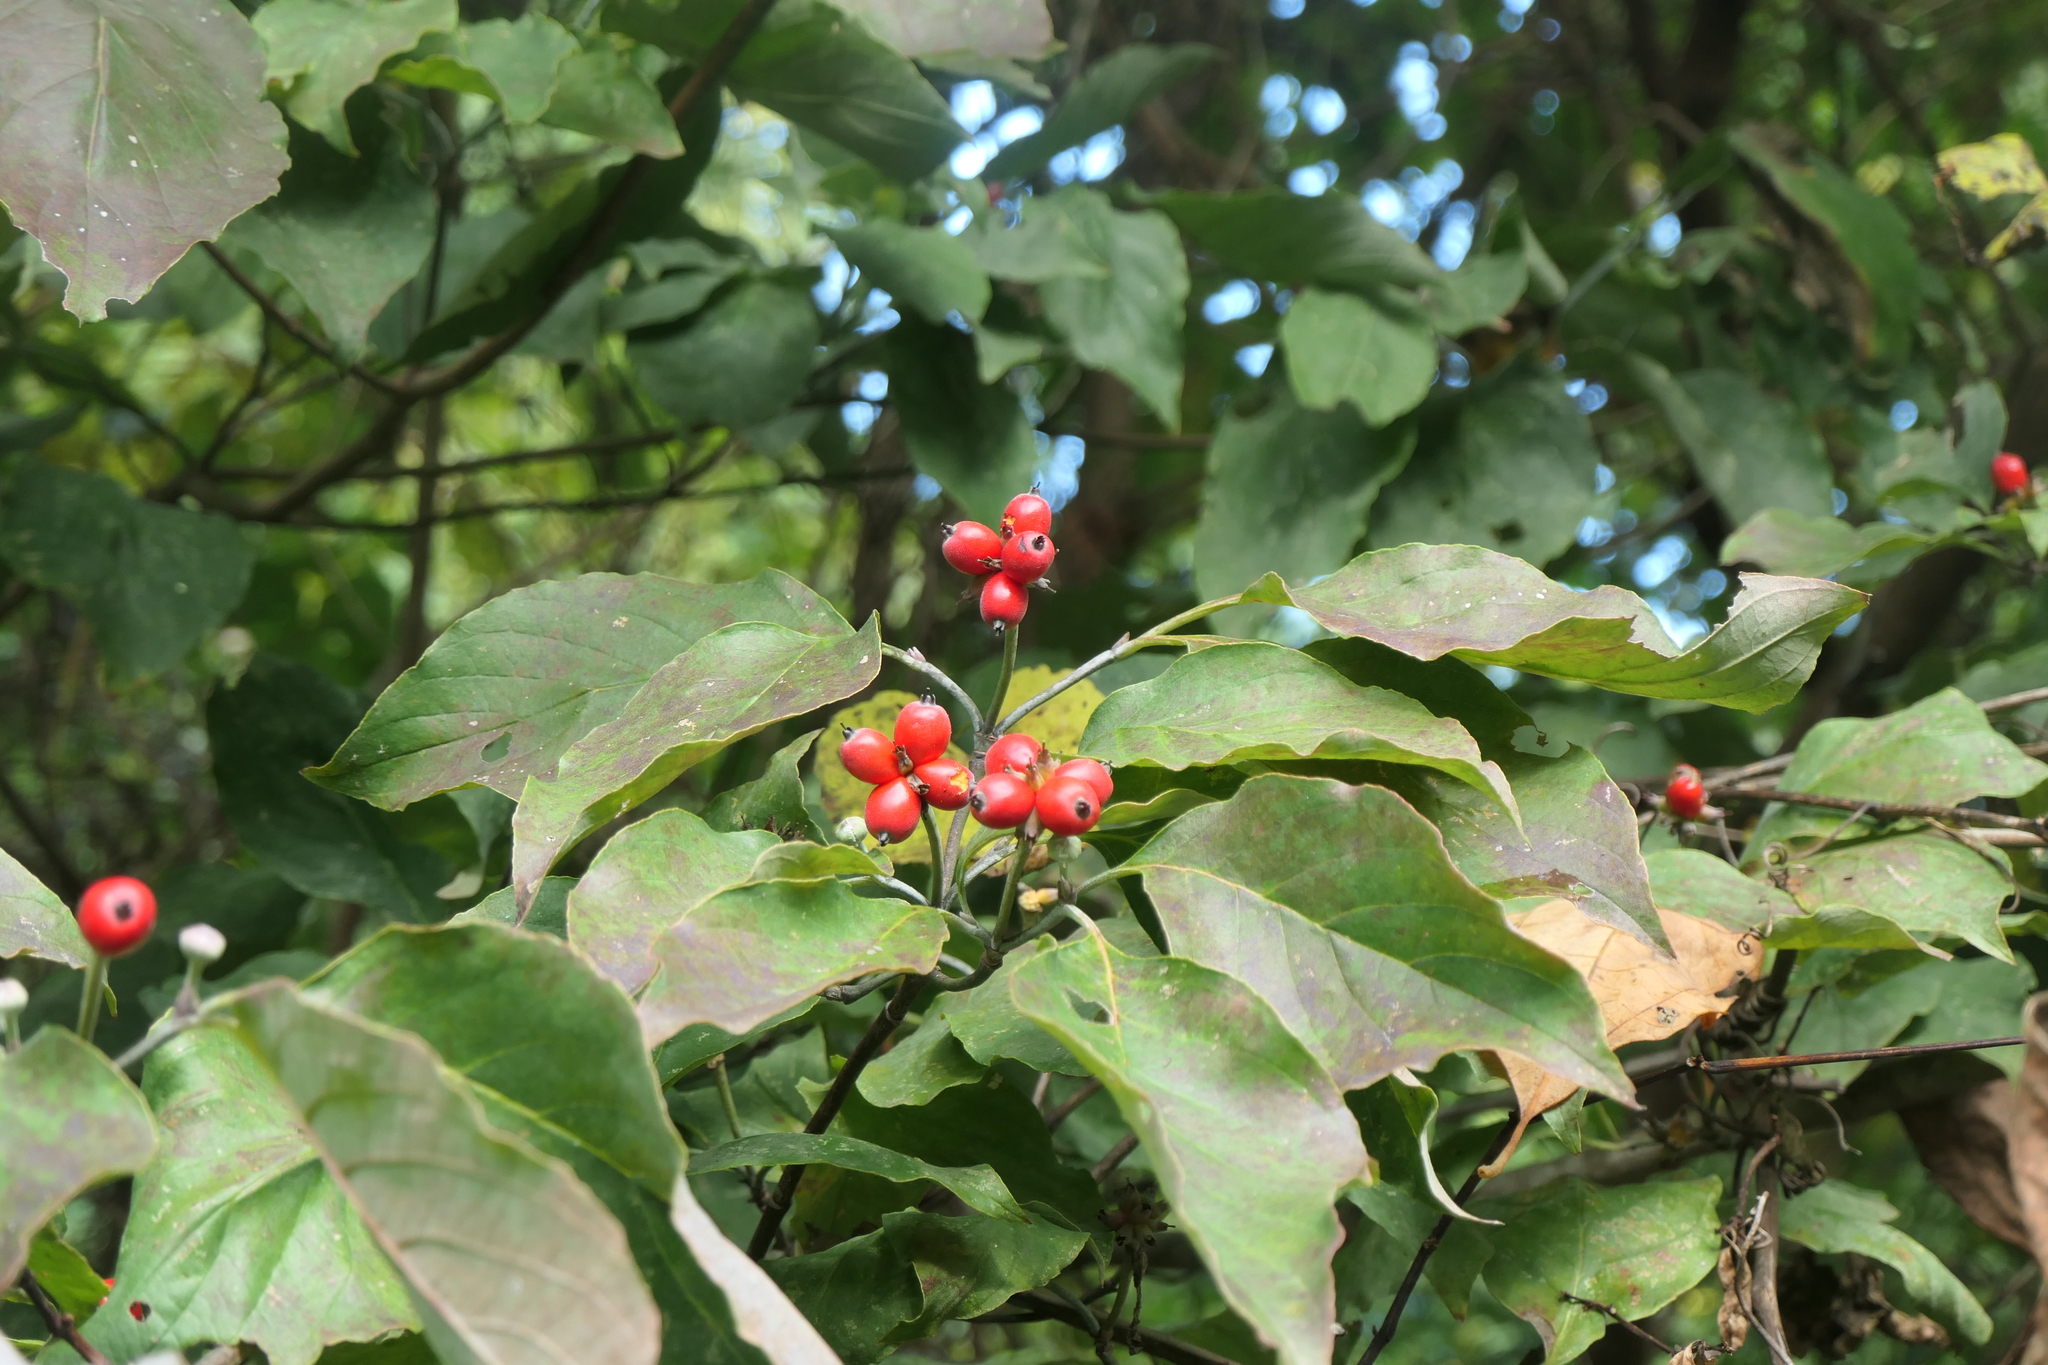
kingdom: Plantae
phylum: Tracheophyta
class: Magnoliopsida
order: Cornales
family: Cornaceae
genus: Cornus
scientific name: Cornus florida
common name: Flowering dogwood
